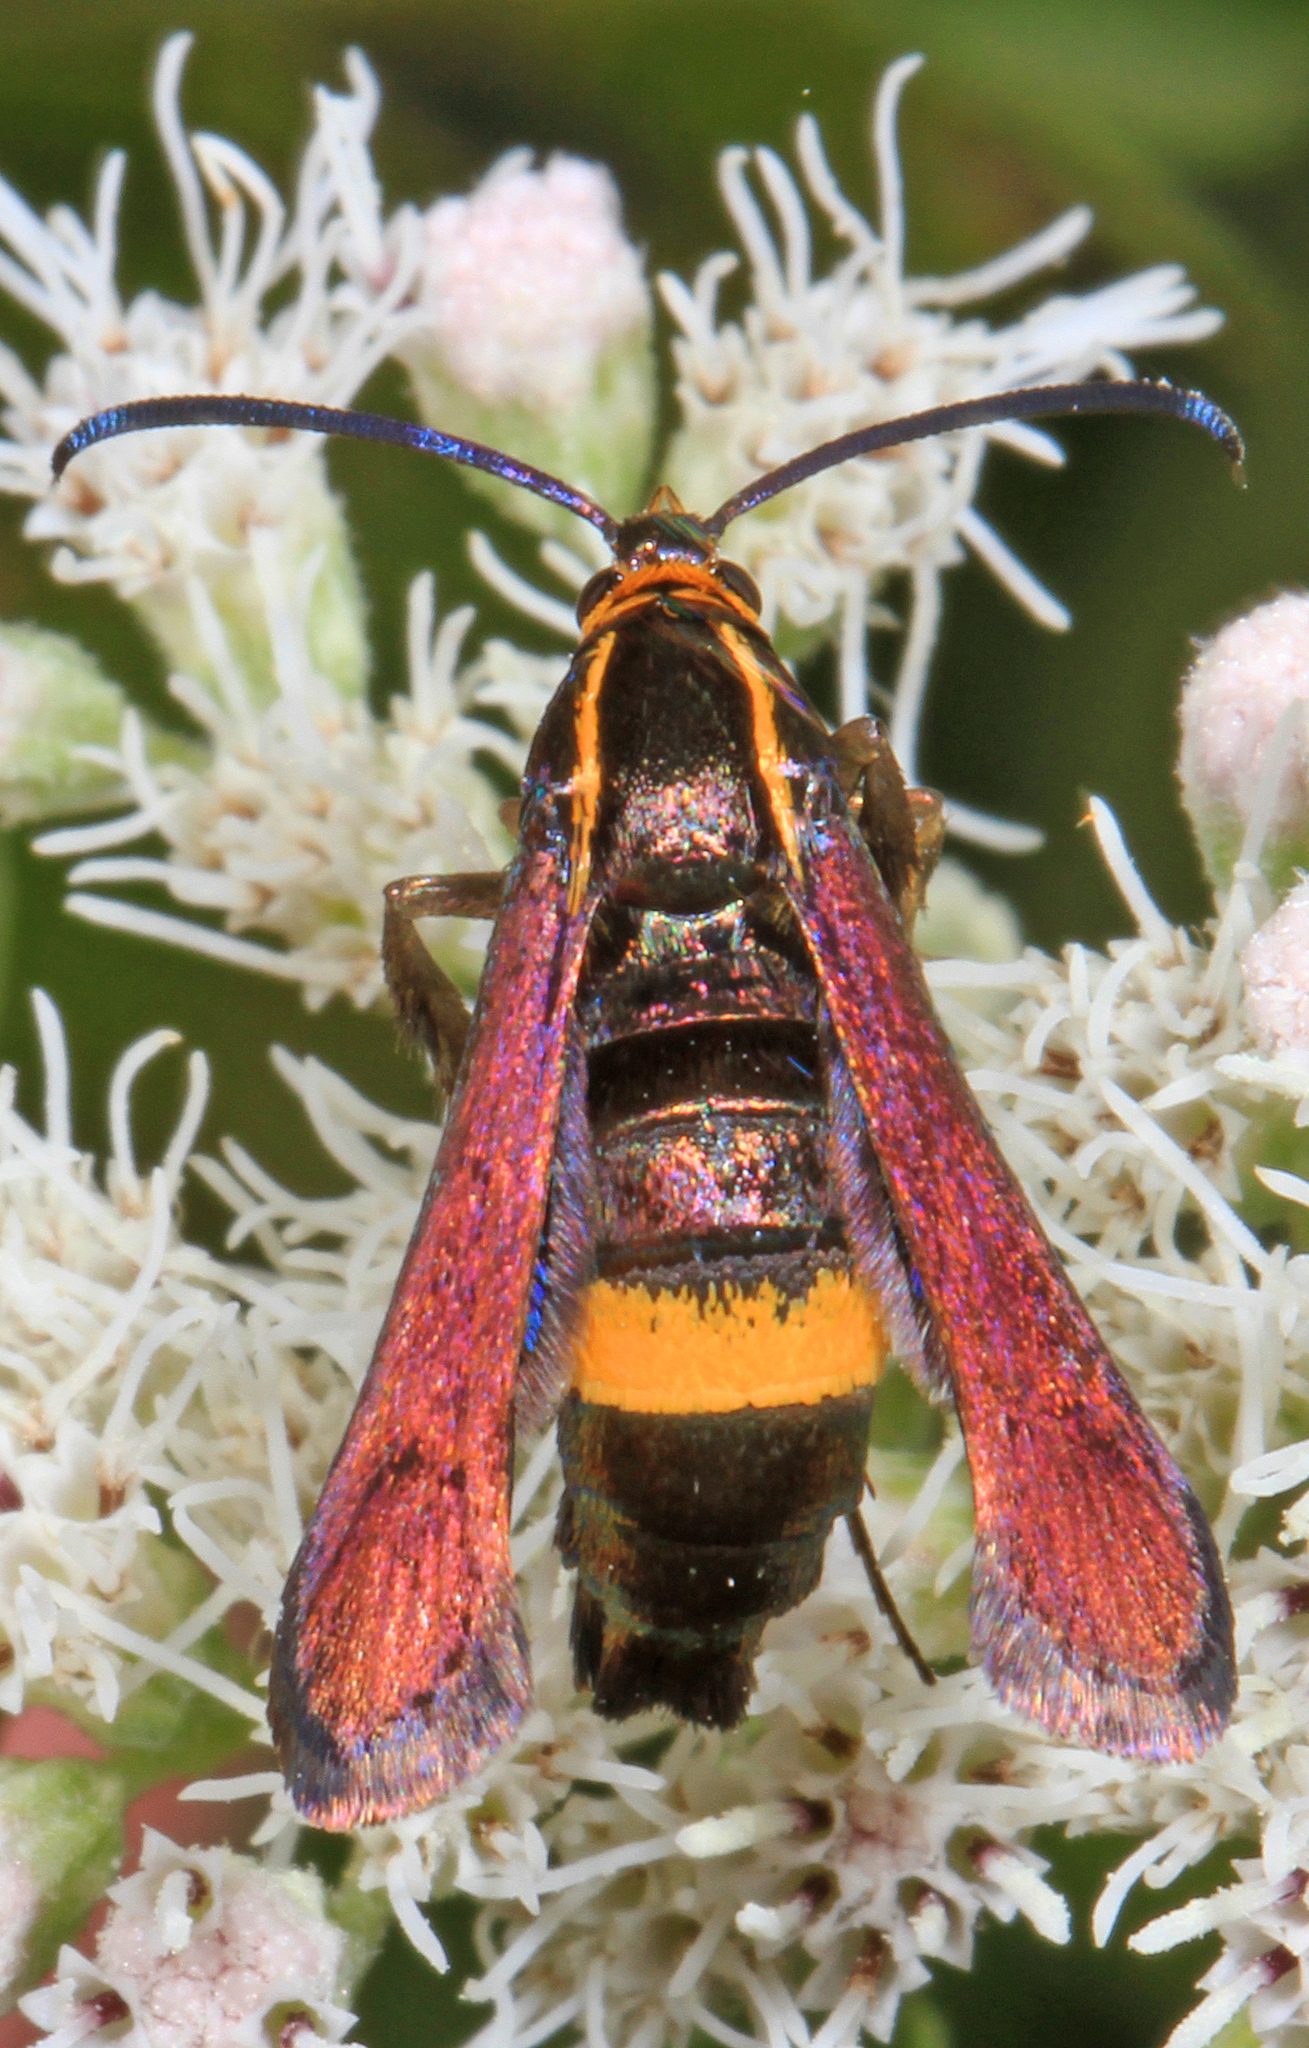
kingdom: Animalia
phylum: Arthropoda
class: Insecta
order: Lepidoptera
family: Sesiidae
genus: Carmenta
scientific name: Carmenta pyralidiformis
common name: Boneset borer moth
